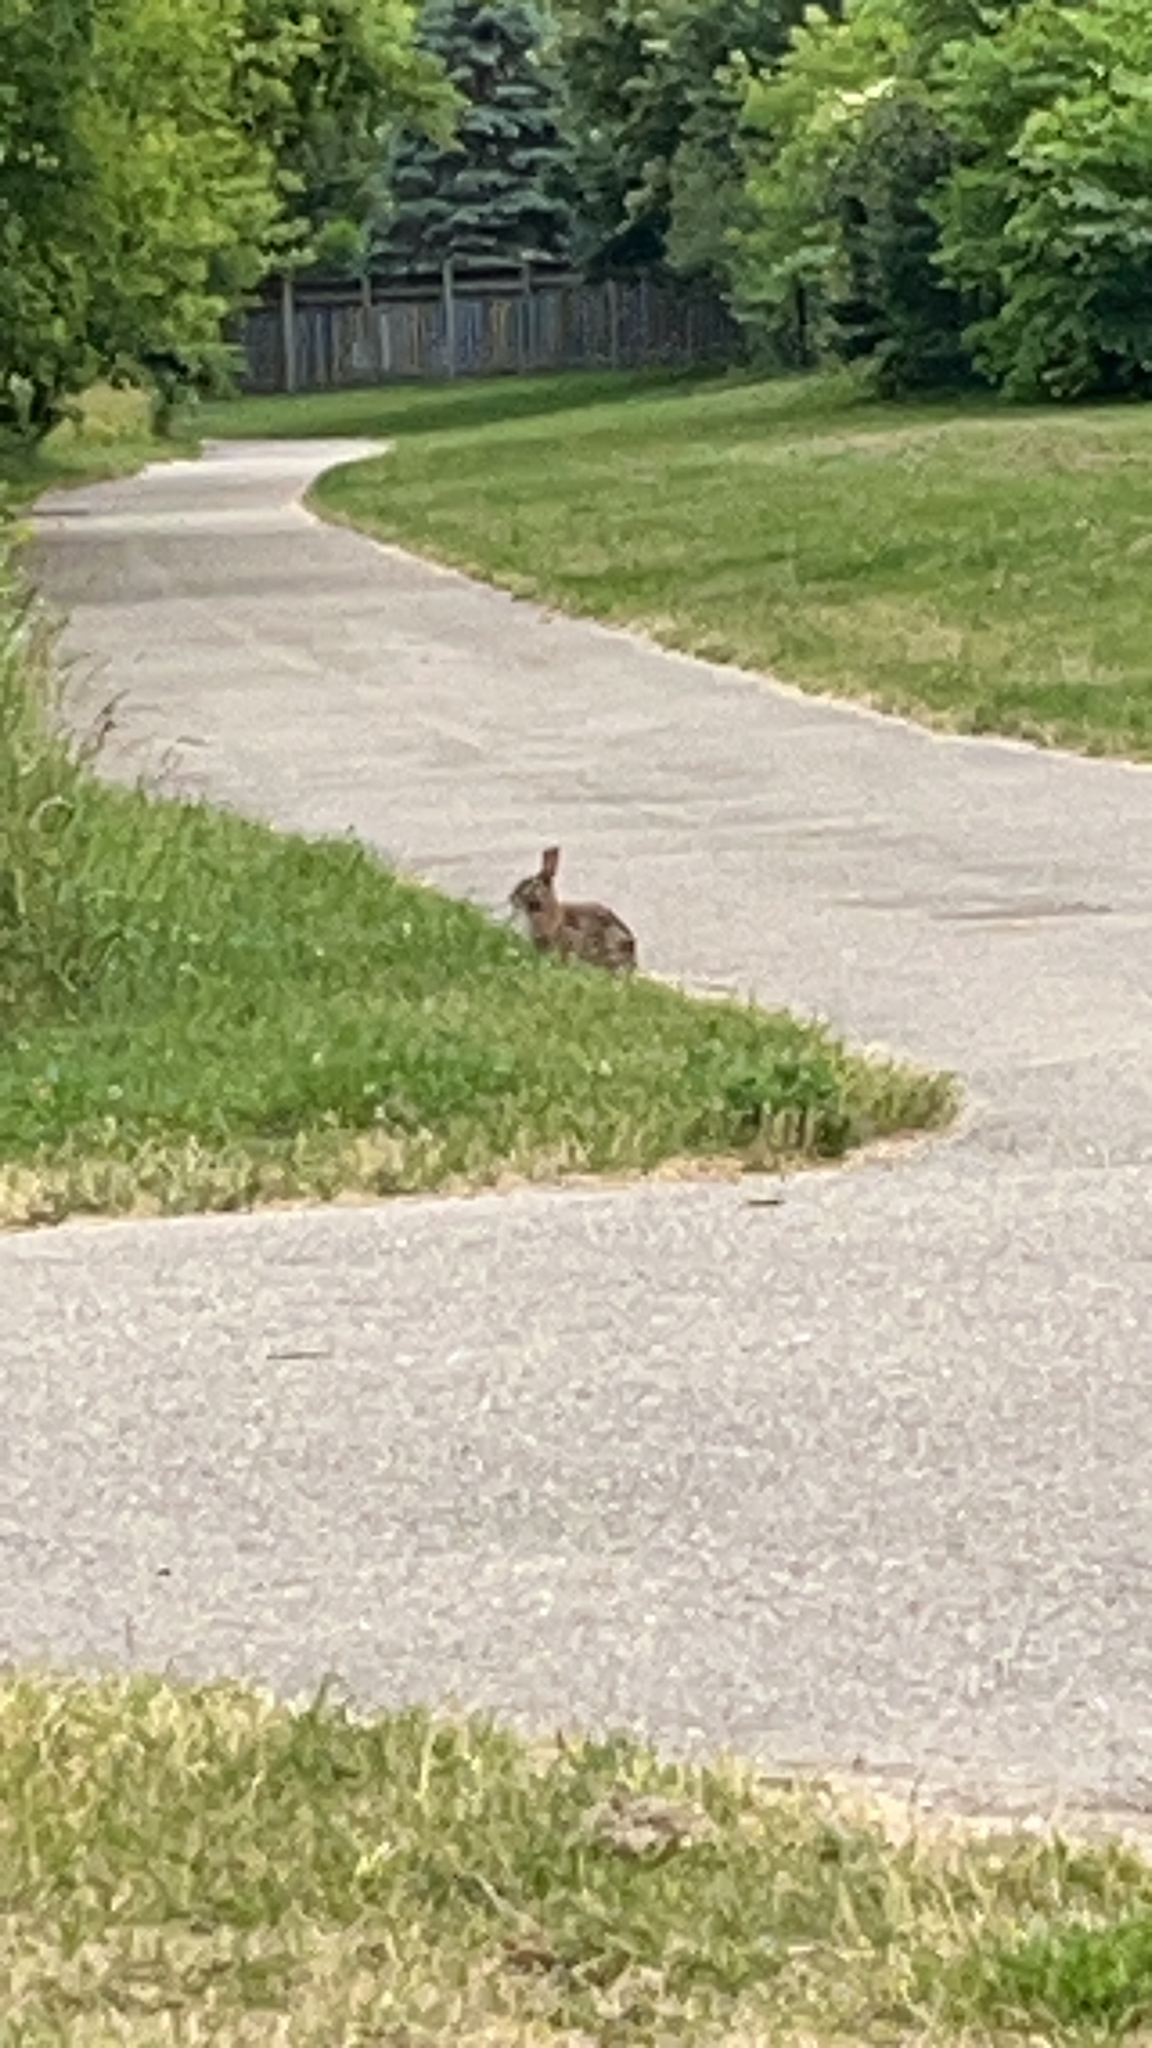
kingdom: Animalia
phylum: Chordata
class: Mammalia
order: Lagomorpha
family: Leporidae
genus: Sylvilagus
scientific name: Sylvilagus floridanus
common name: Eastern cottontail
